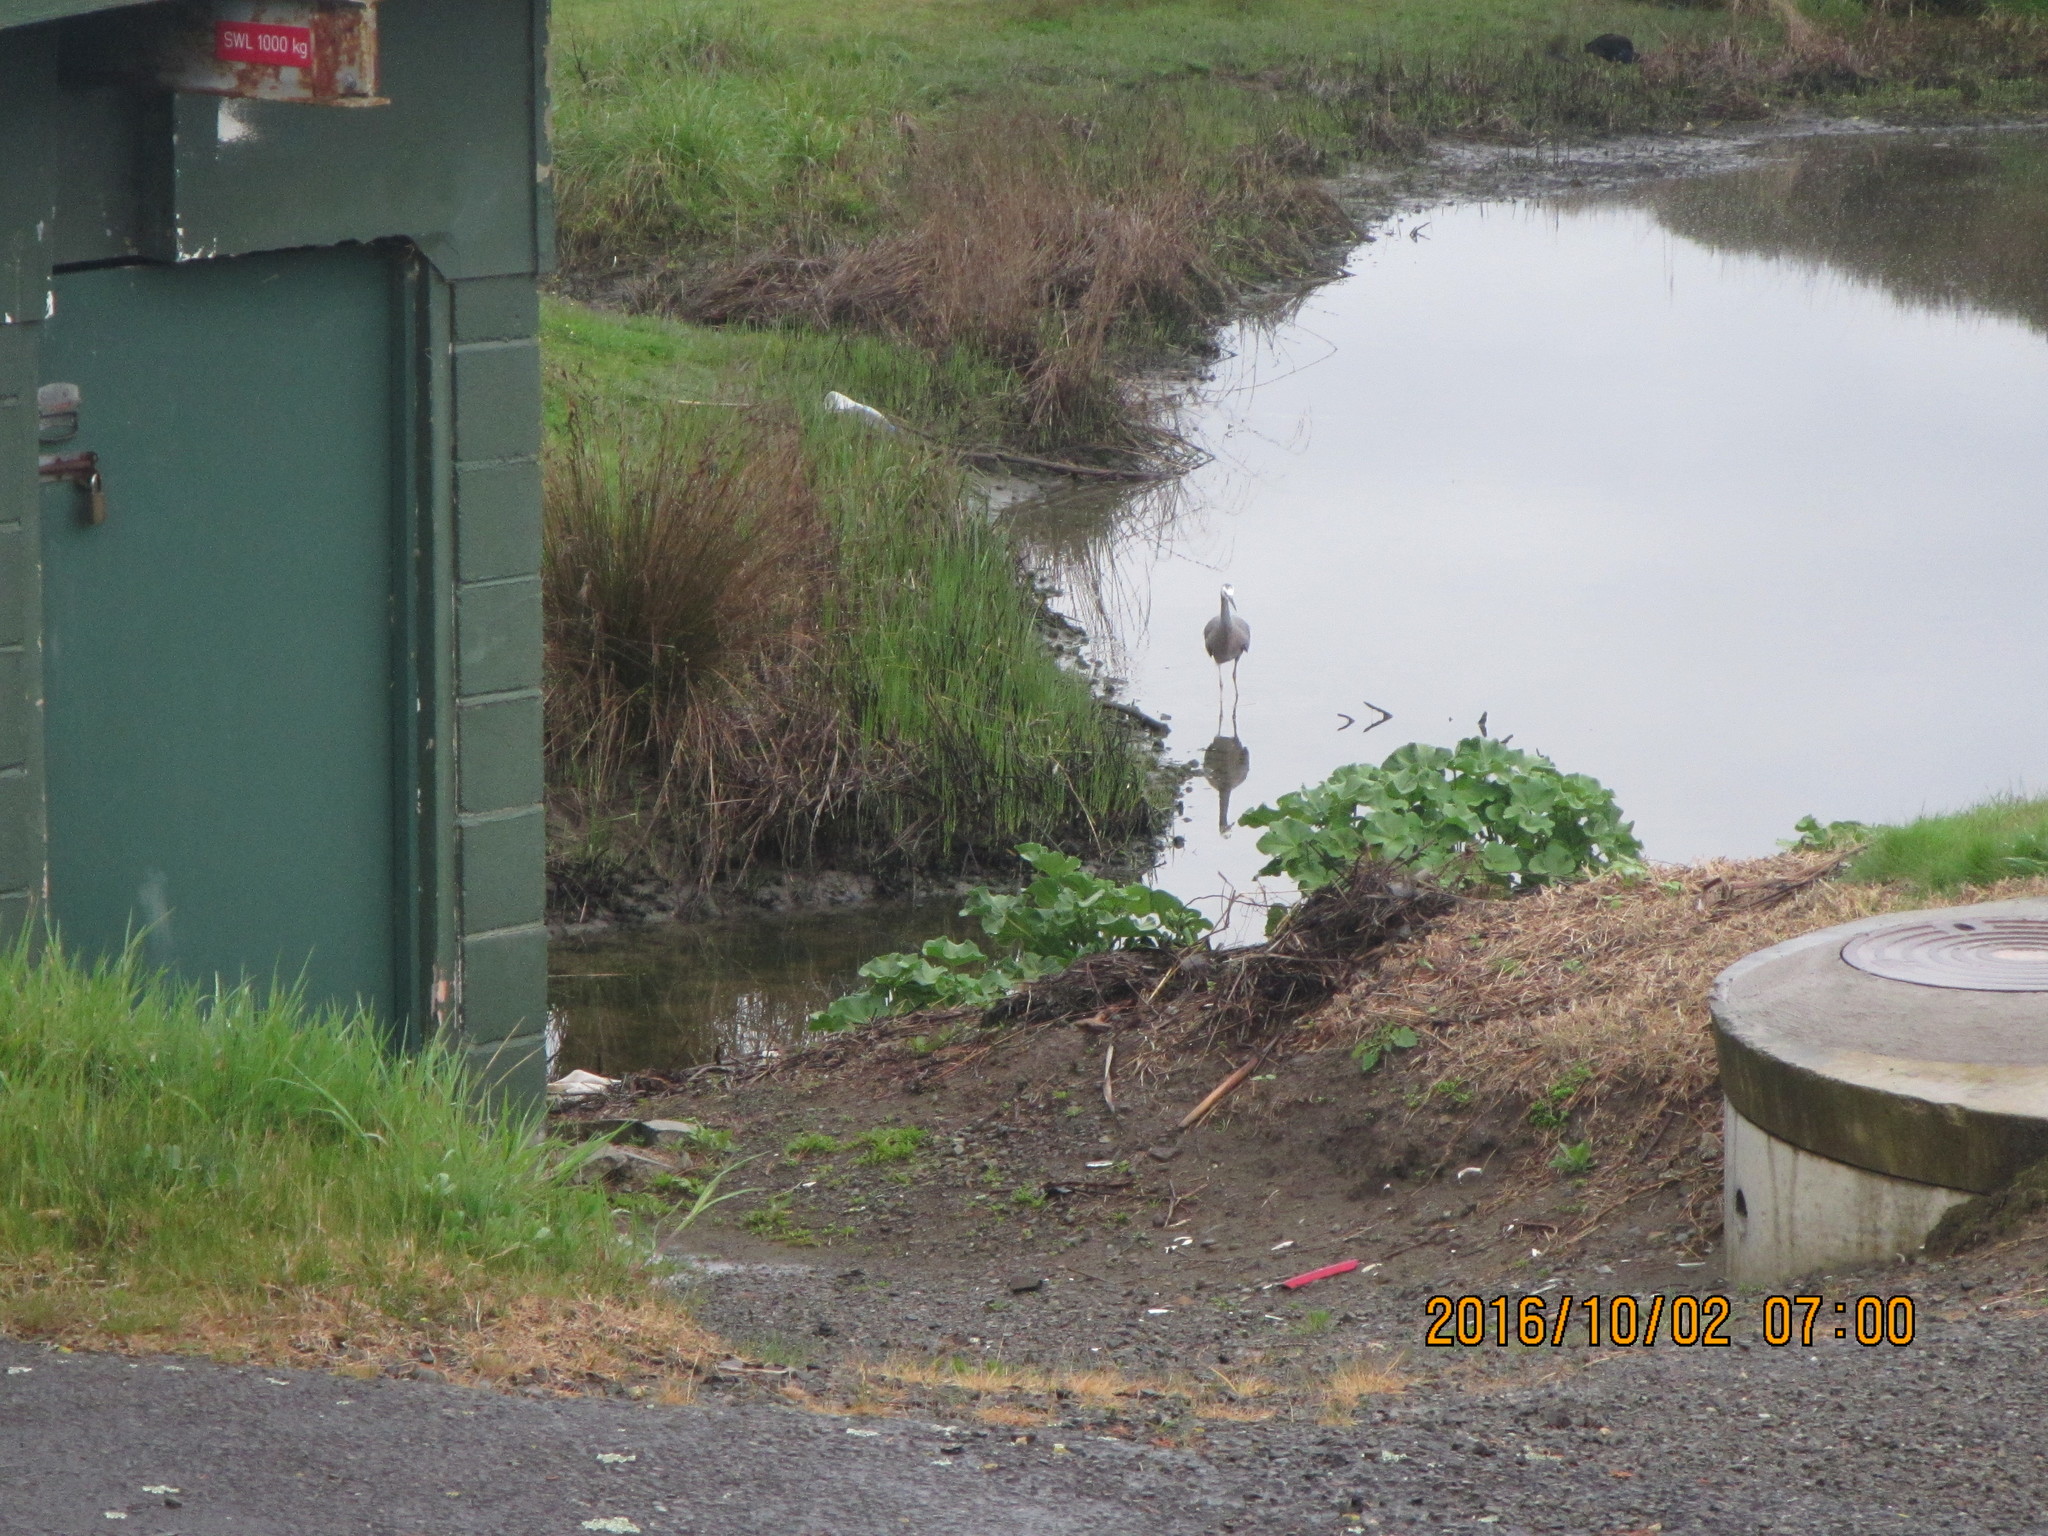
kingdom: Animalia
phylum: Chordata
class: Aves
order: Pelecaniformes
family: Ardeidae
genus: Egretta
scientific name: Egretta novaehollandiae
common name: White-faced heron
